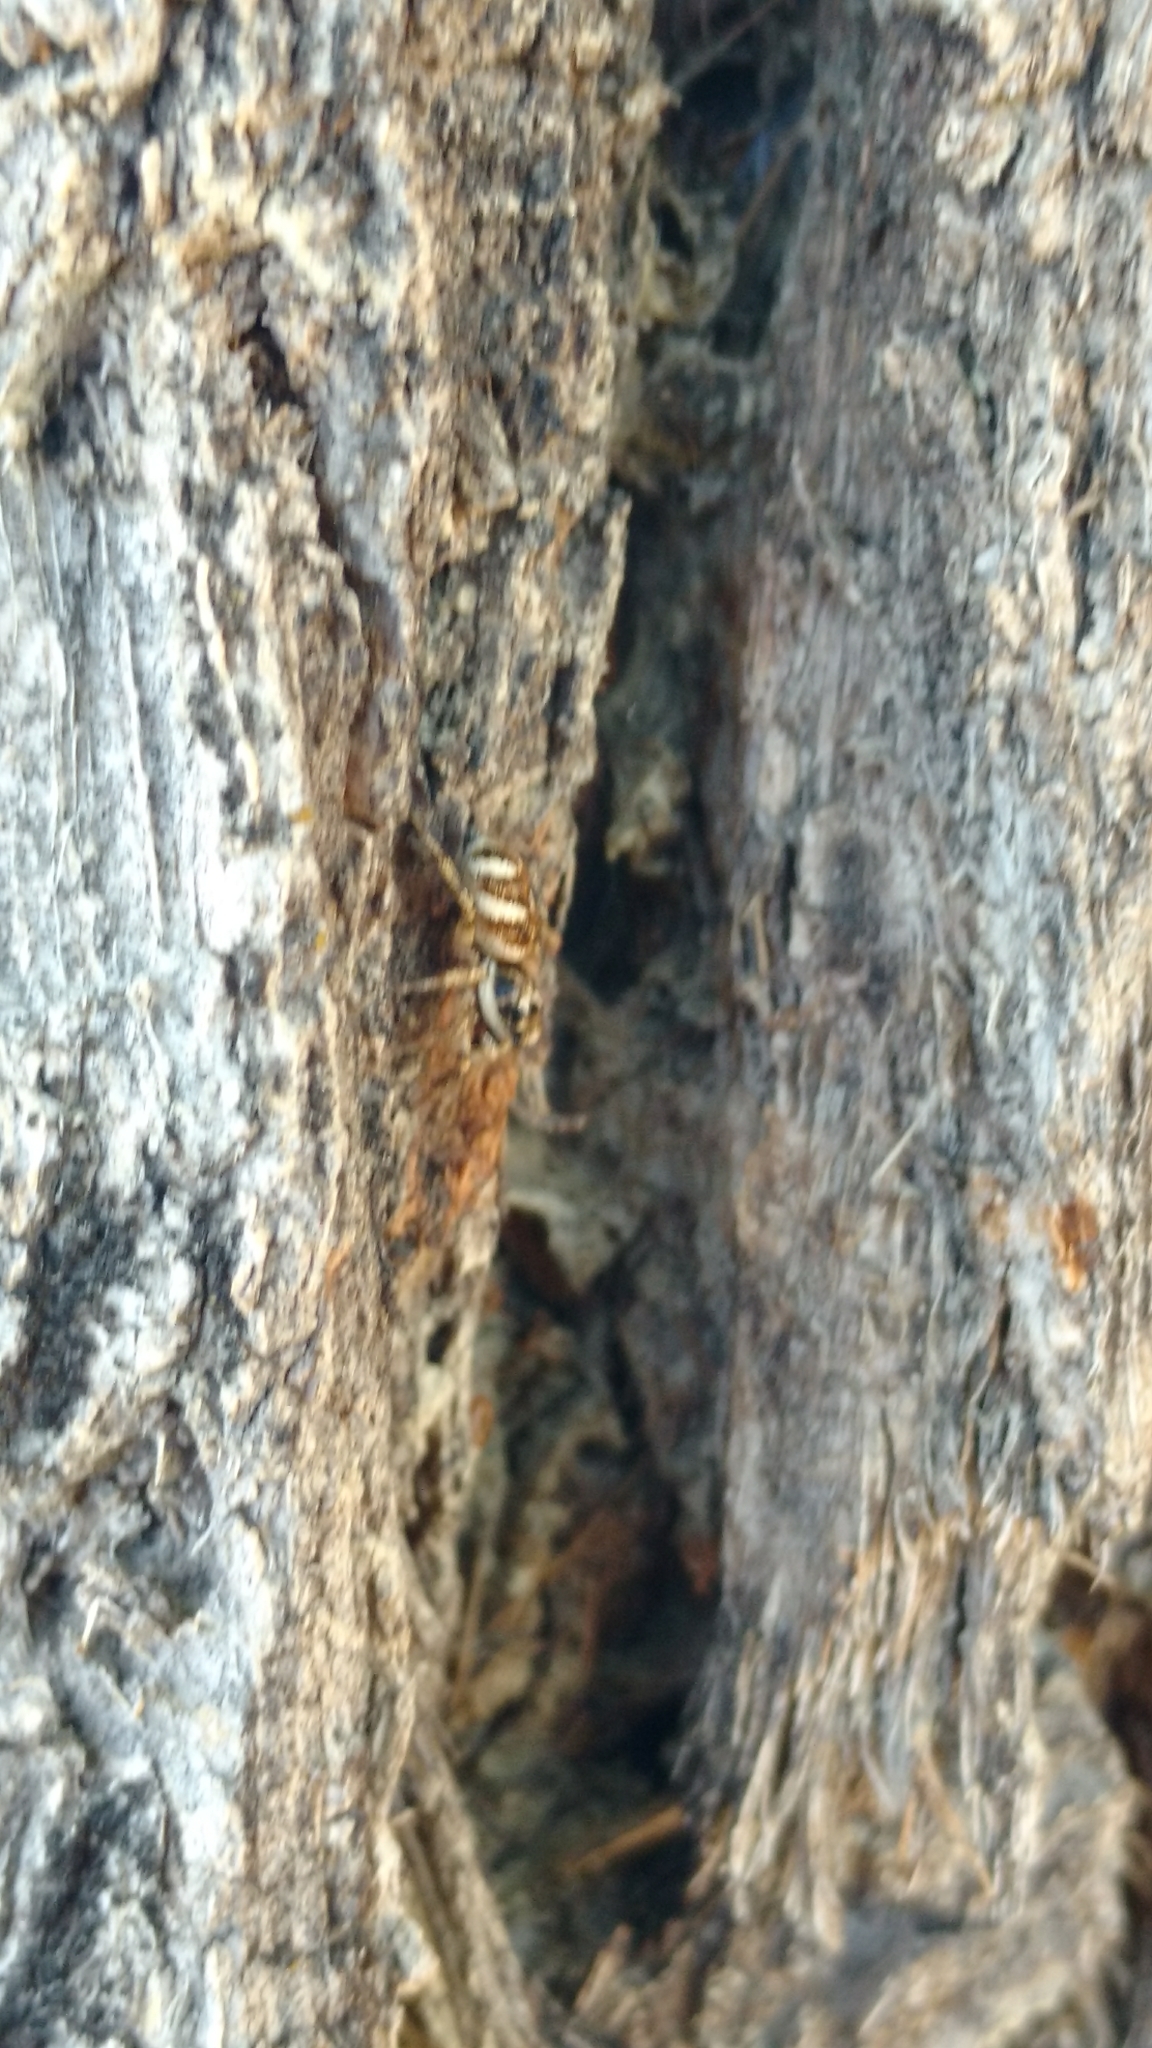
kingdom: Animalia
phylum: Arthropoda
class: Arachnida
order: Araneae
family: Salticidae
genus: Salticus
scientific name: Salticus scenicus
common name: Zebra jumper
